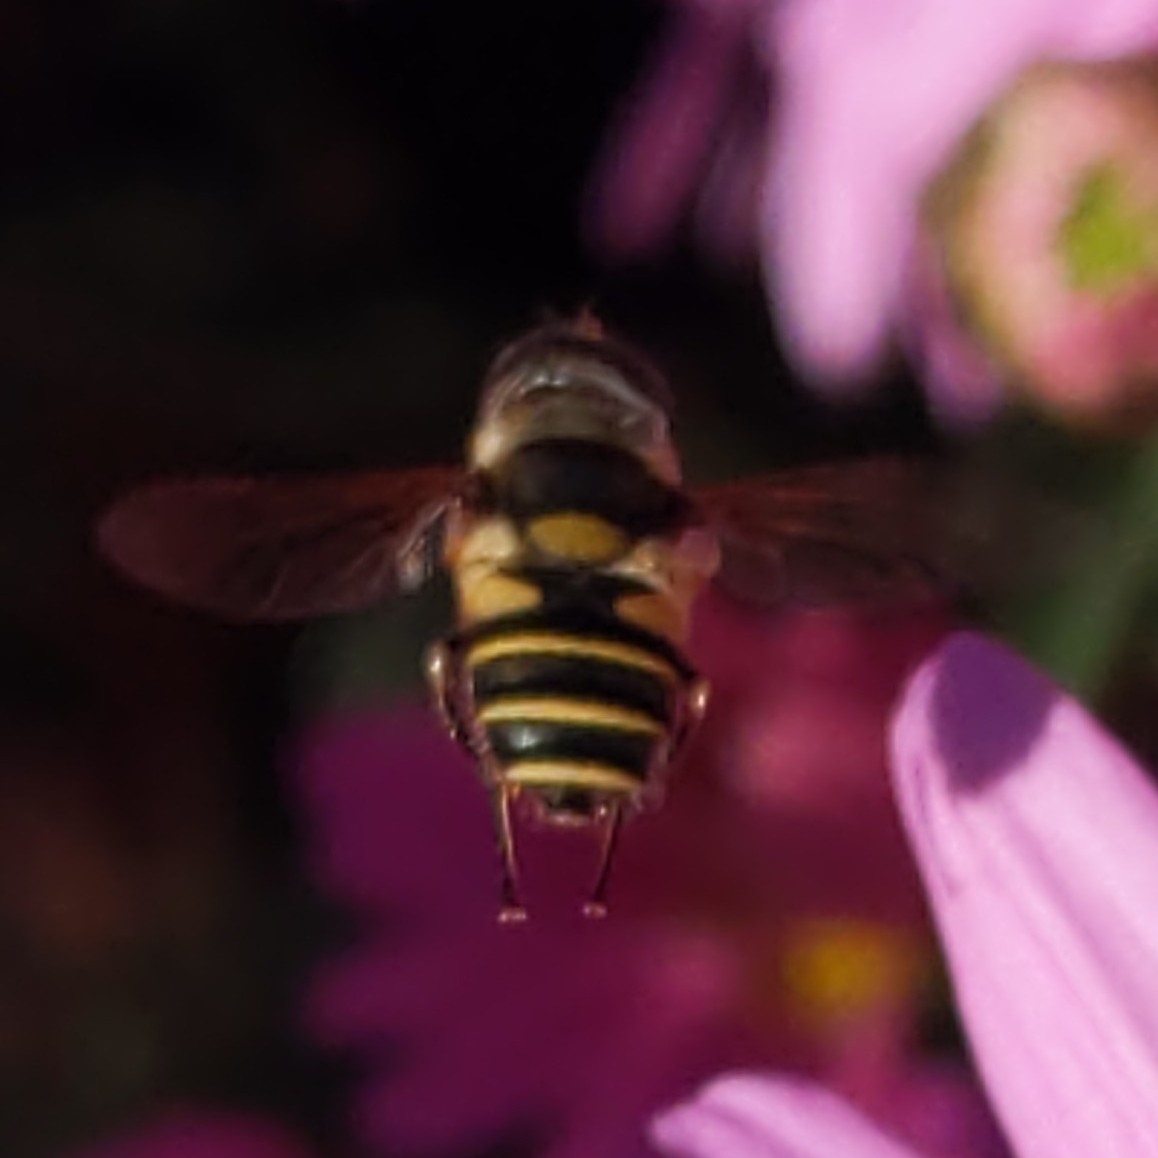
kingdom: Animalia
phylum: Arthropoda
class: Insecta
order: Diptera
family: Syrphidae
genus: Eristalis
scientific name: Eristalis transversa
